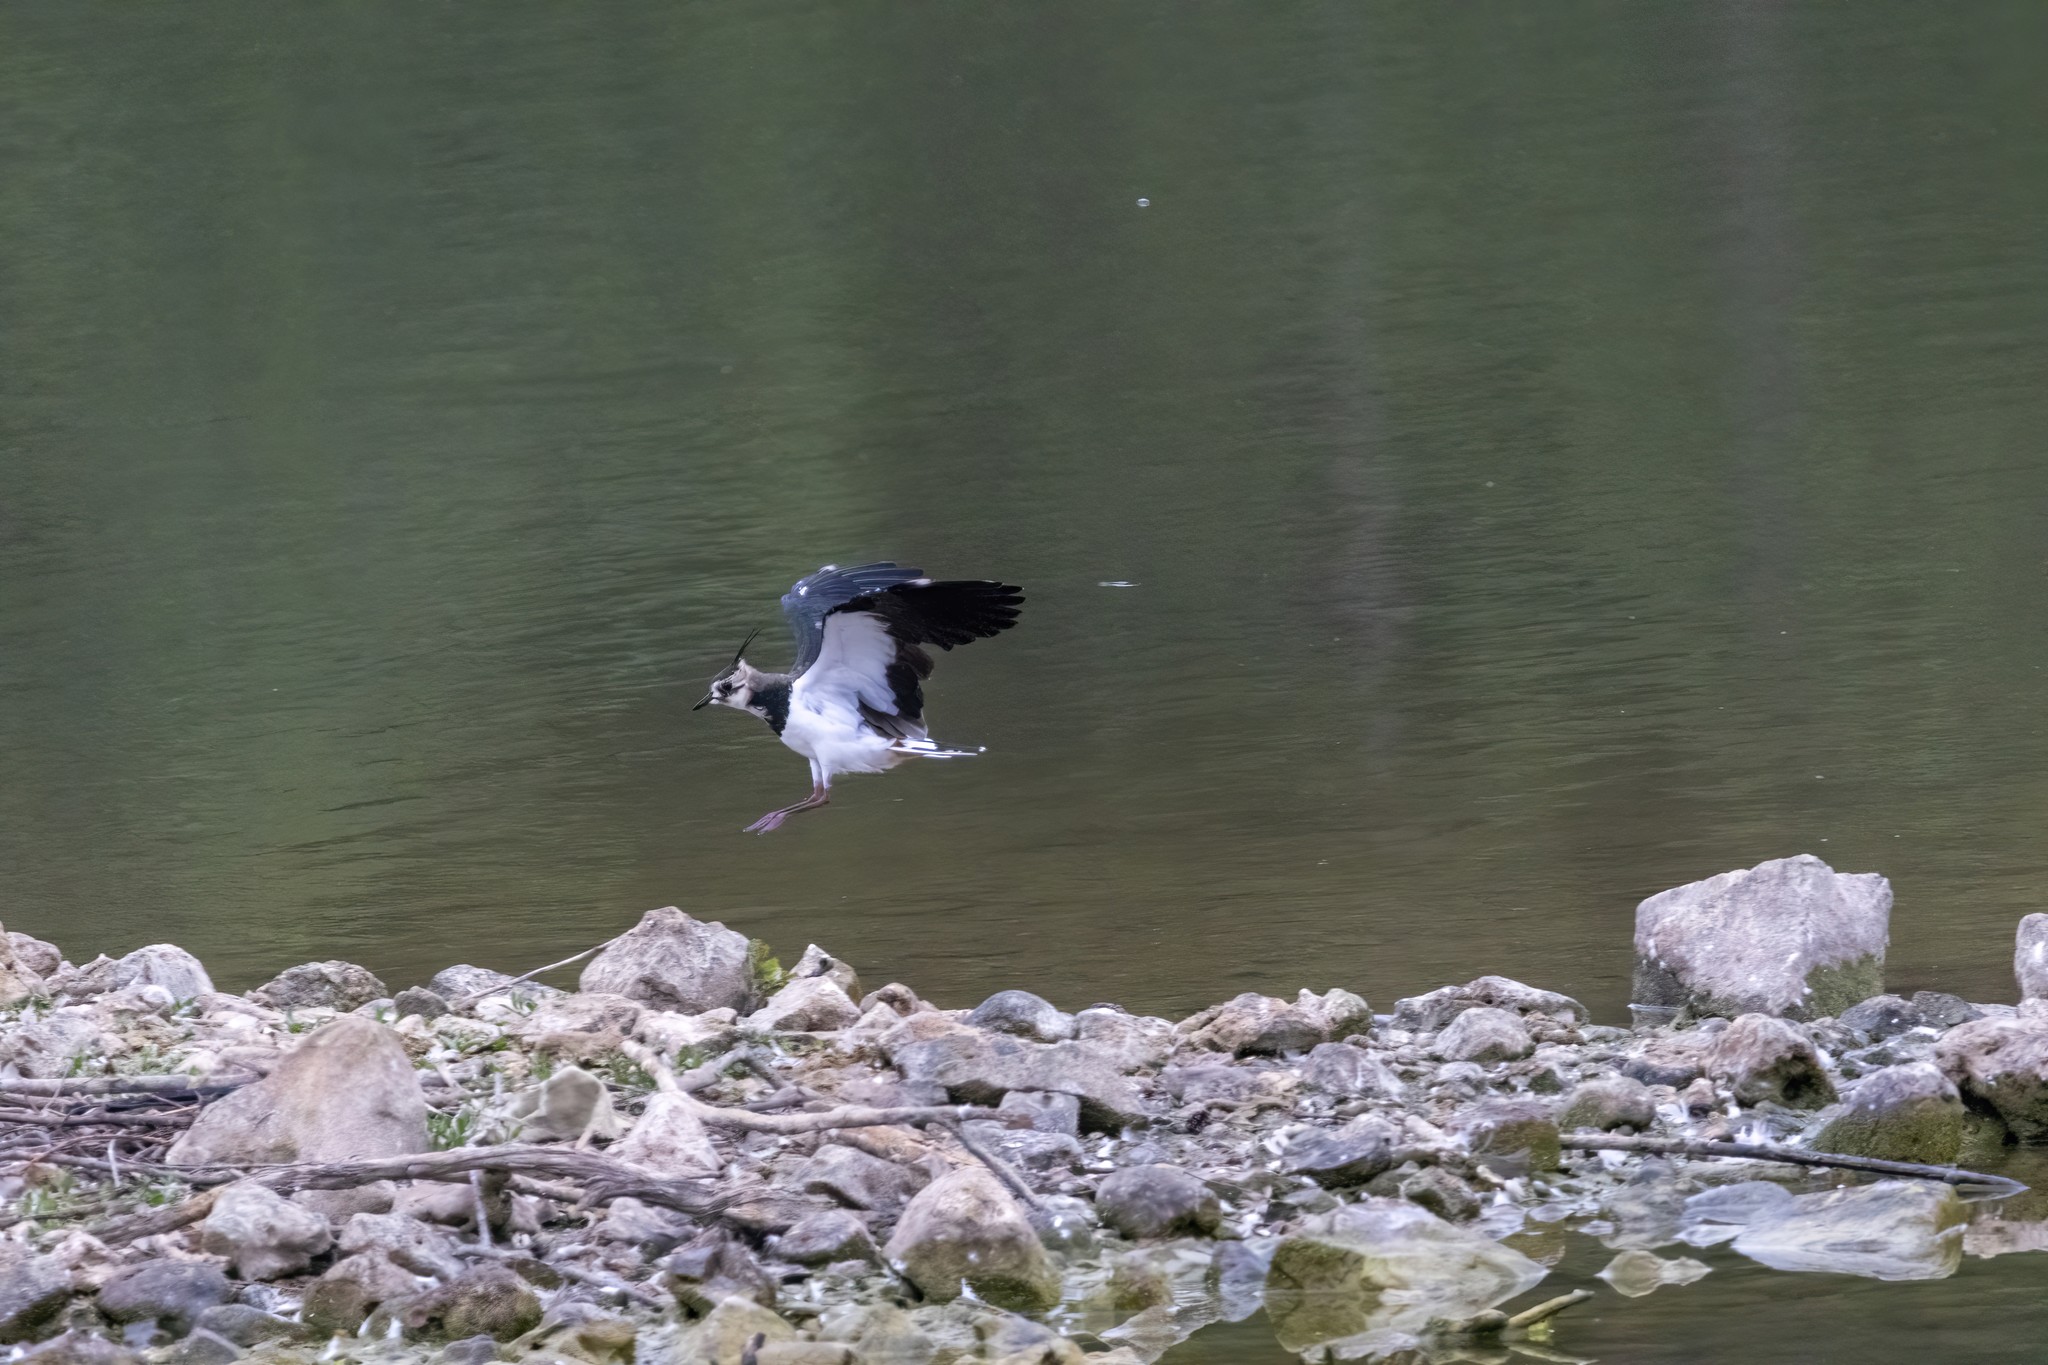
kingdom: Animalia
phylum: Chordata
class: Aves
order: Charadriiformes
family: Charadriidae
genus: Vanellus
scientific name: Vanellus vanellus
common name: Northern lapwing
